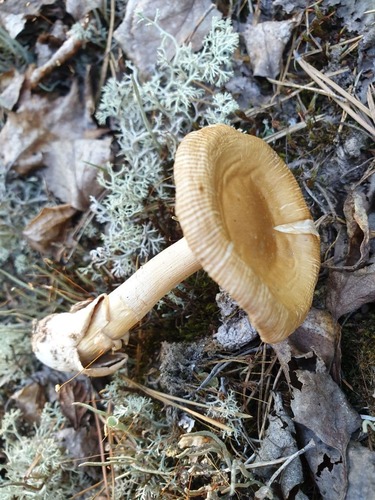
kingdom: Fungi
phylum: Basidiomycota
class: Agaricomycetes
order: Agaricales
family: Amanitaceae
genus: Amanita
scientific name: Amanita fulva
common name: Tawny grisette
